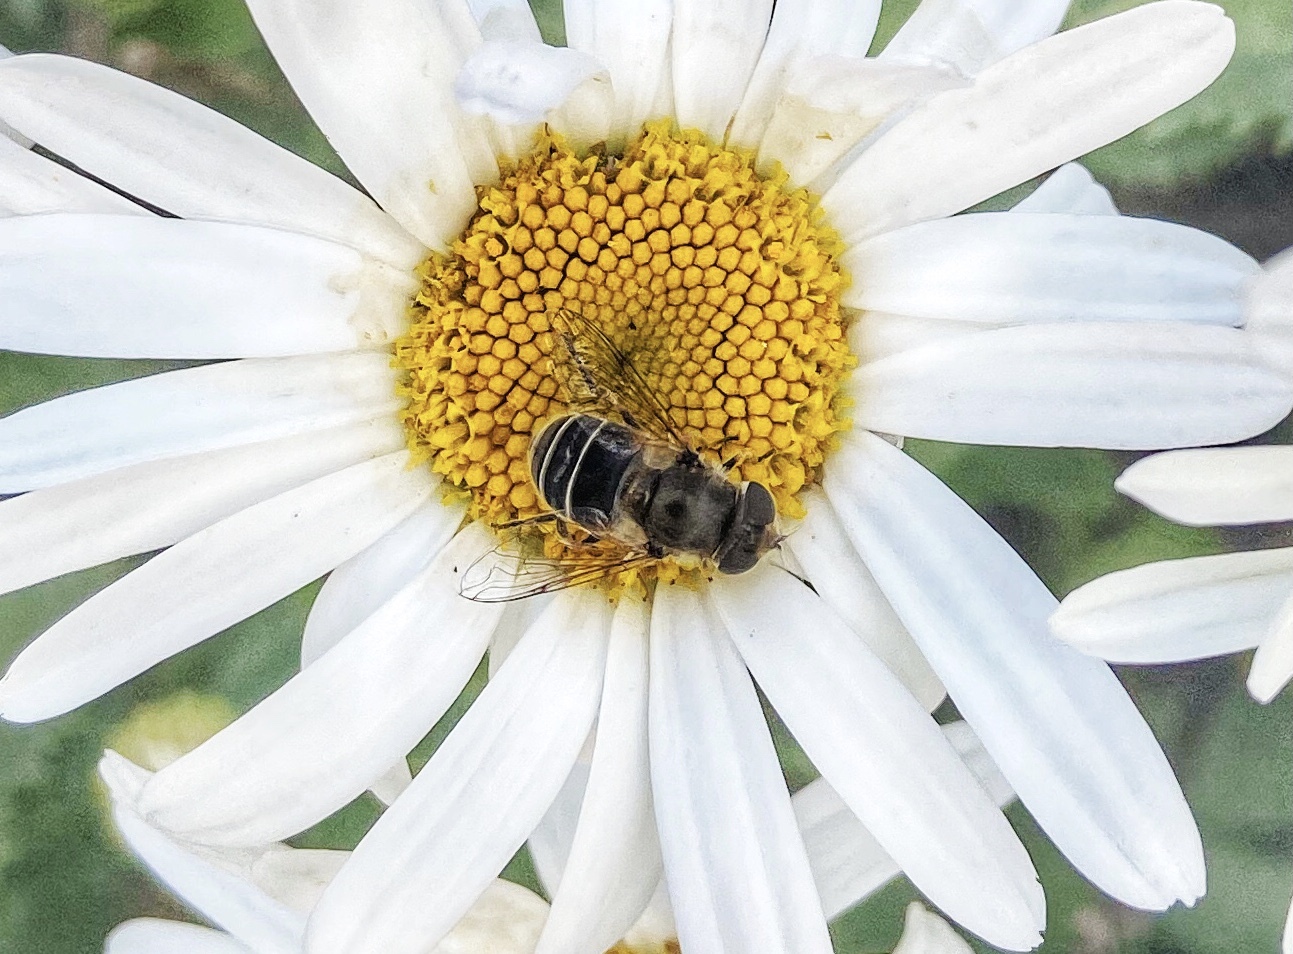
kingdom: Animalia
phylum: Arthropoda
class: Insecta
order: Diptera
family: Syrphidae
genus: Eristalis
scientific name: Eristalis hirta
